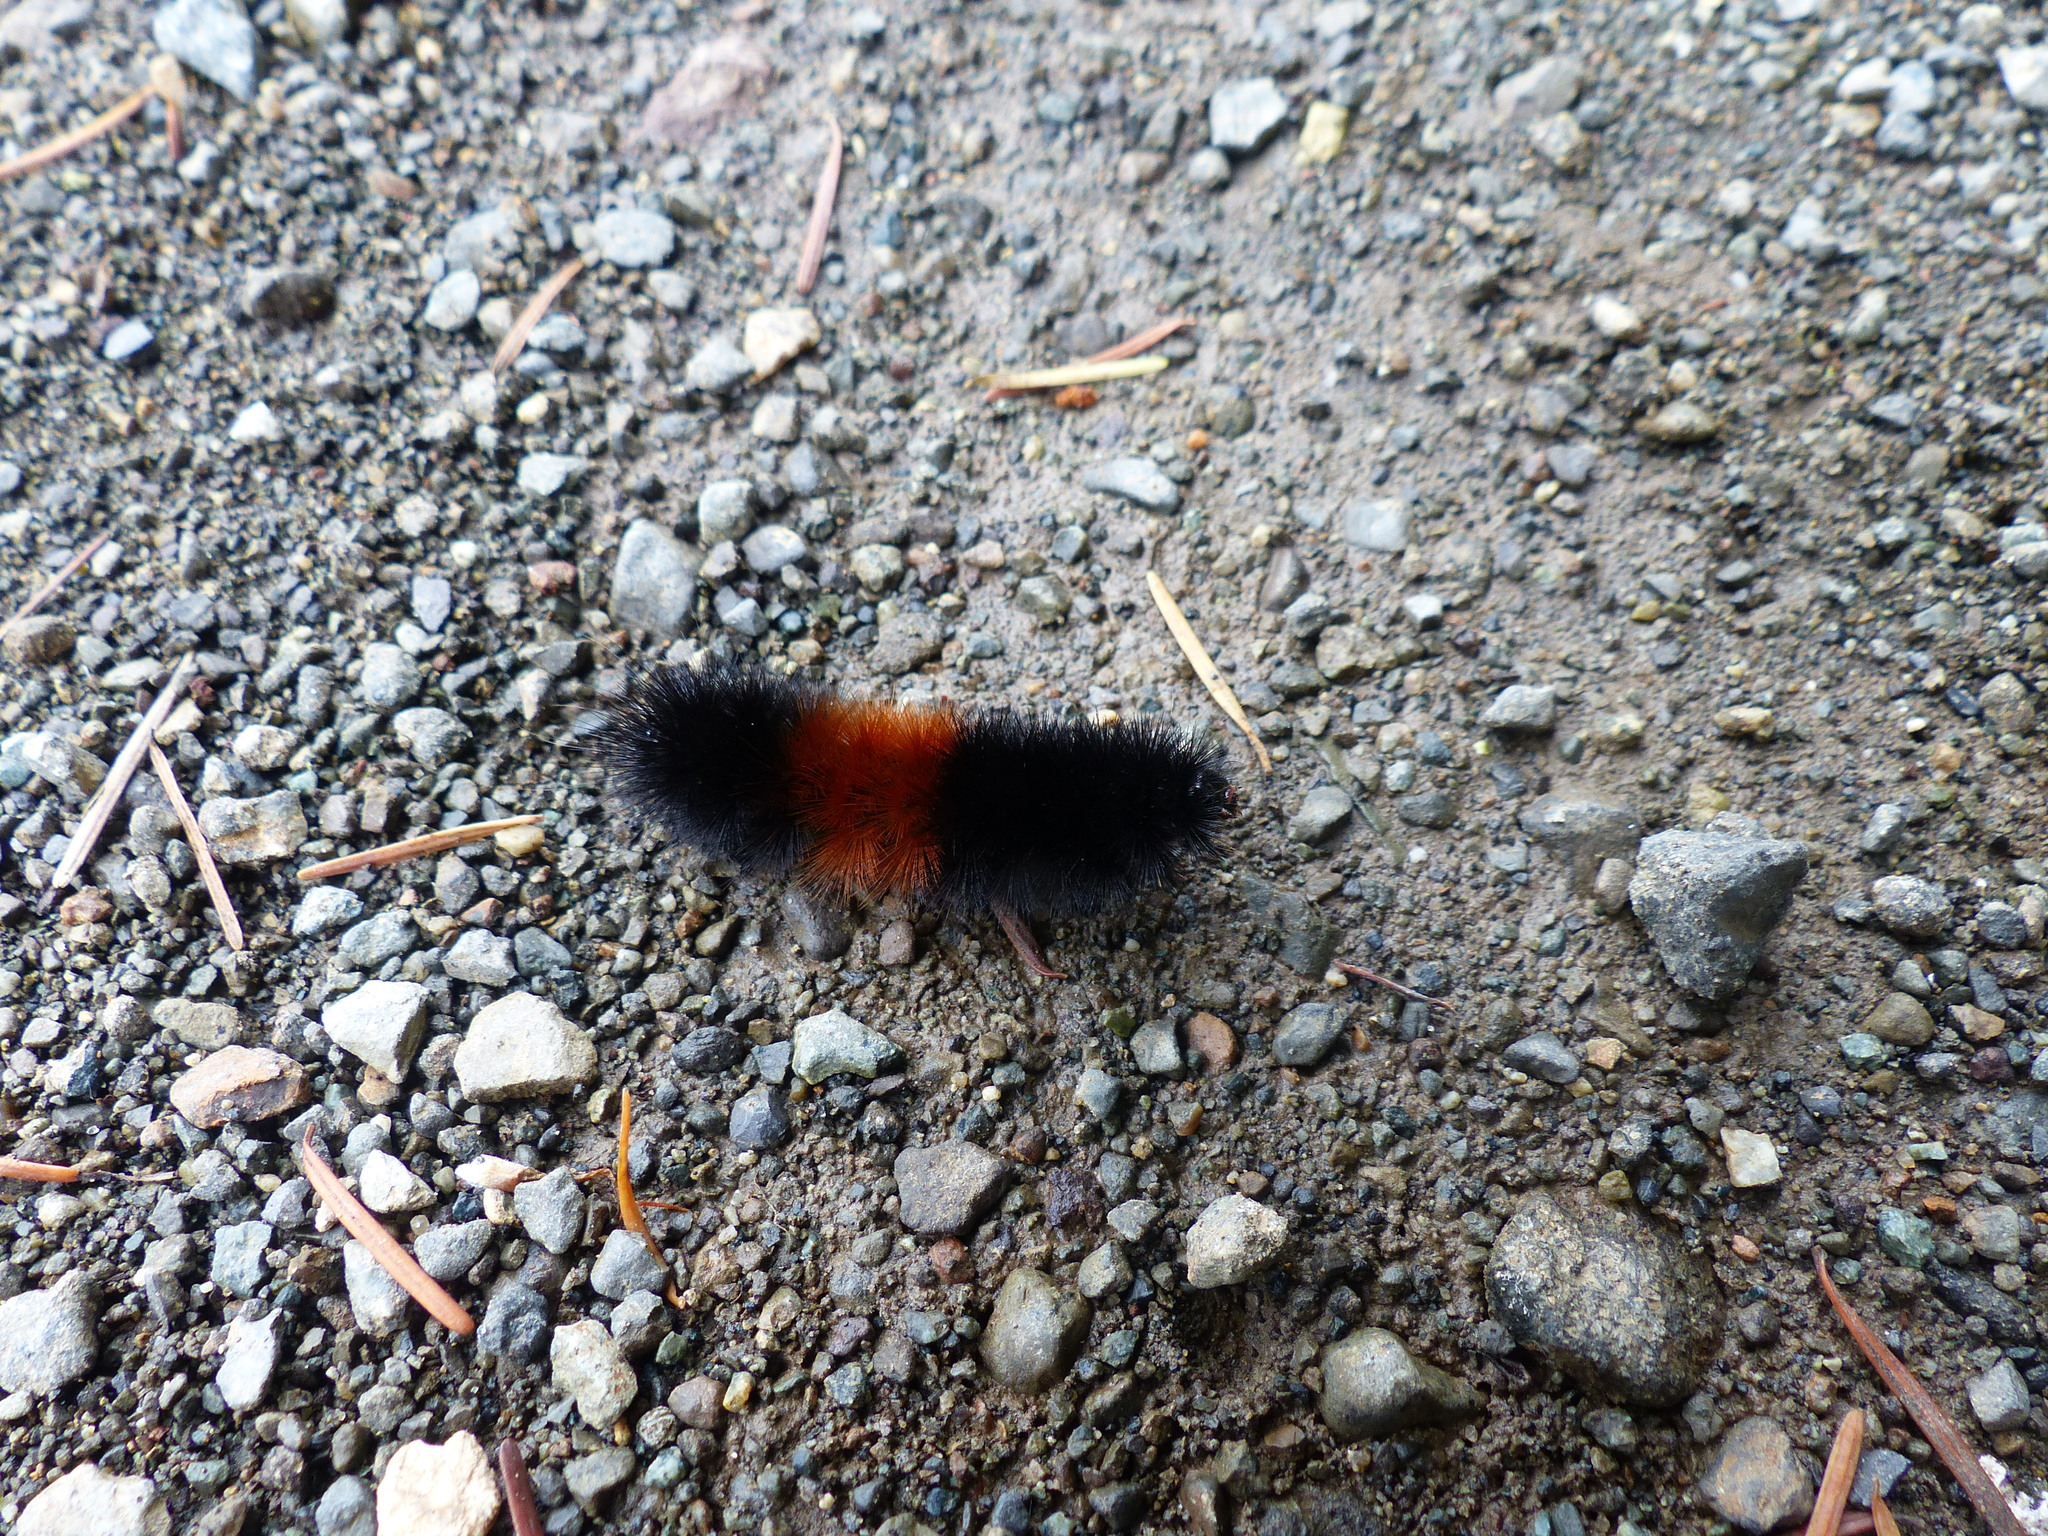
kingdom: Animalia
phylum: Arthropoda
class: Insecta
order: Lepidoptera
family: Erebidae
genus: Pyrrharctia
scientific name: Pyrrharctia isabella
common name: Isabella tiger moth
